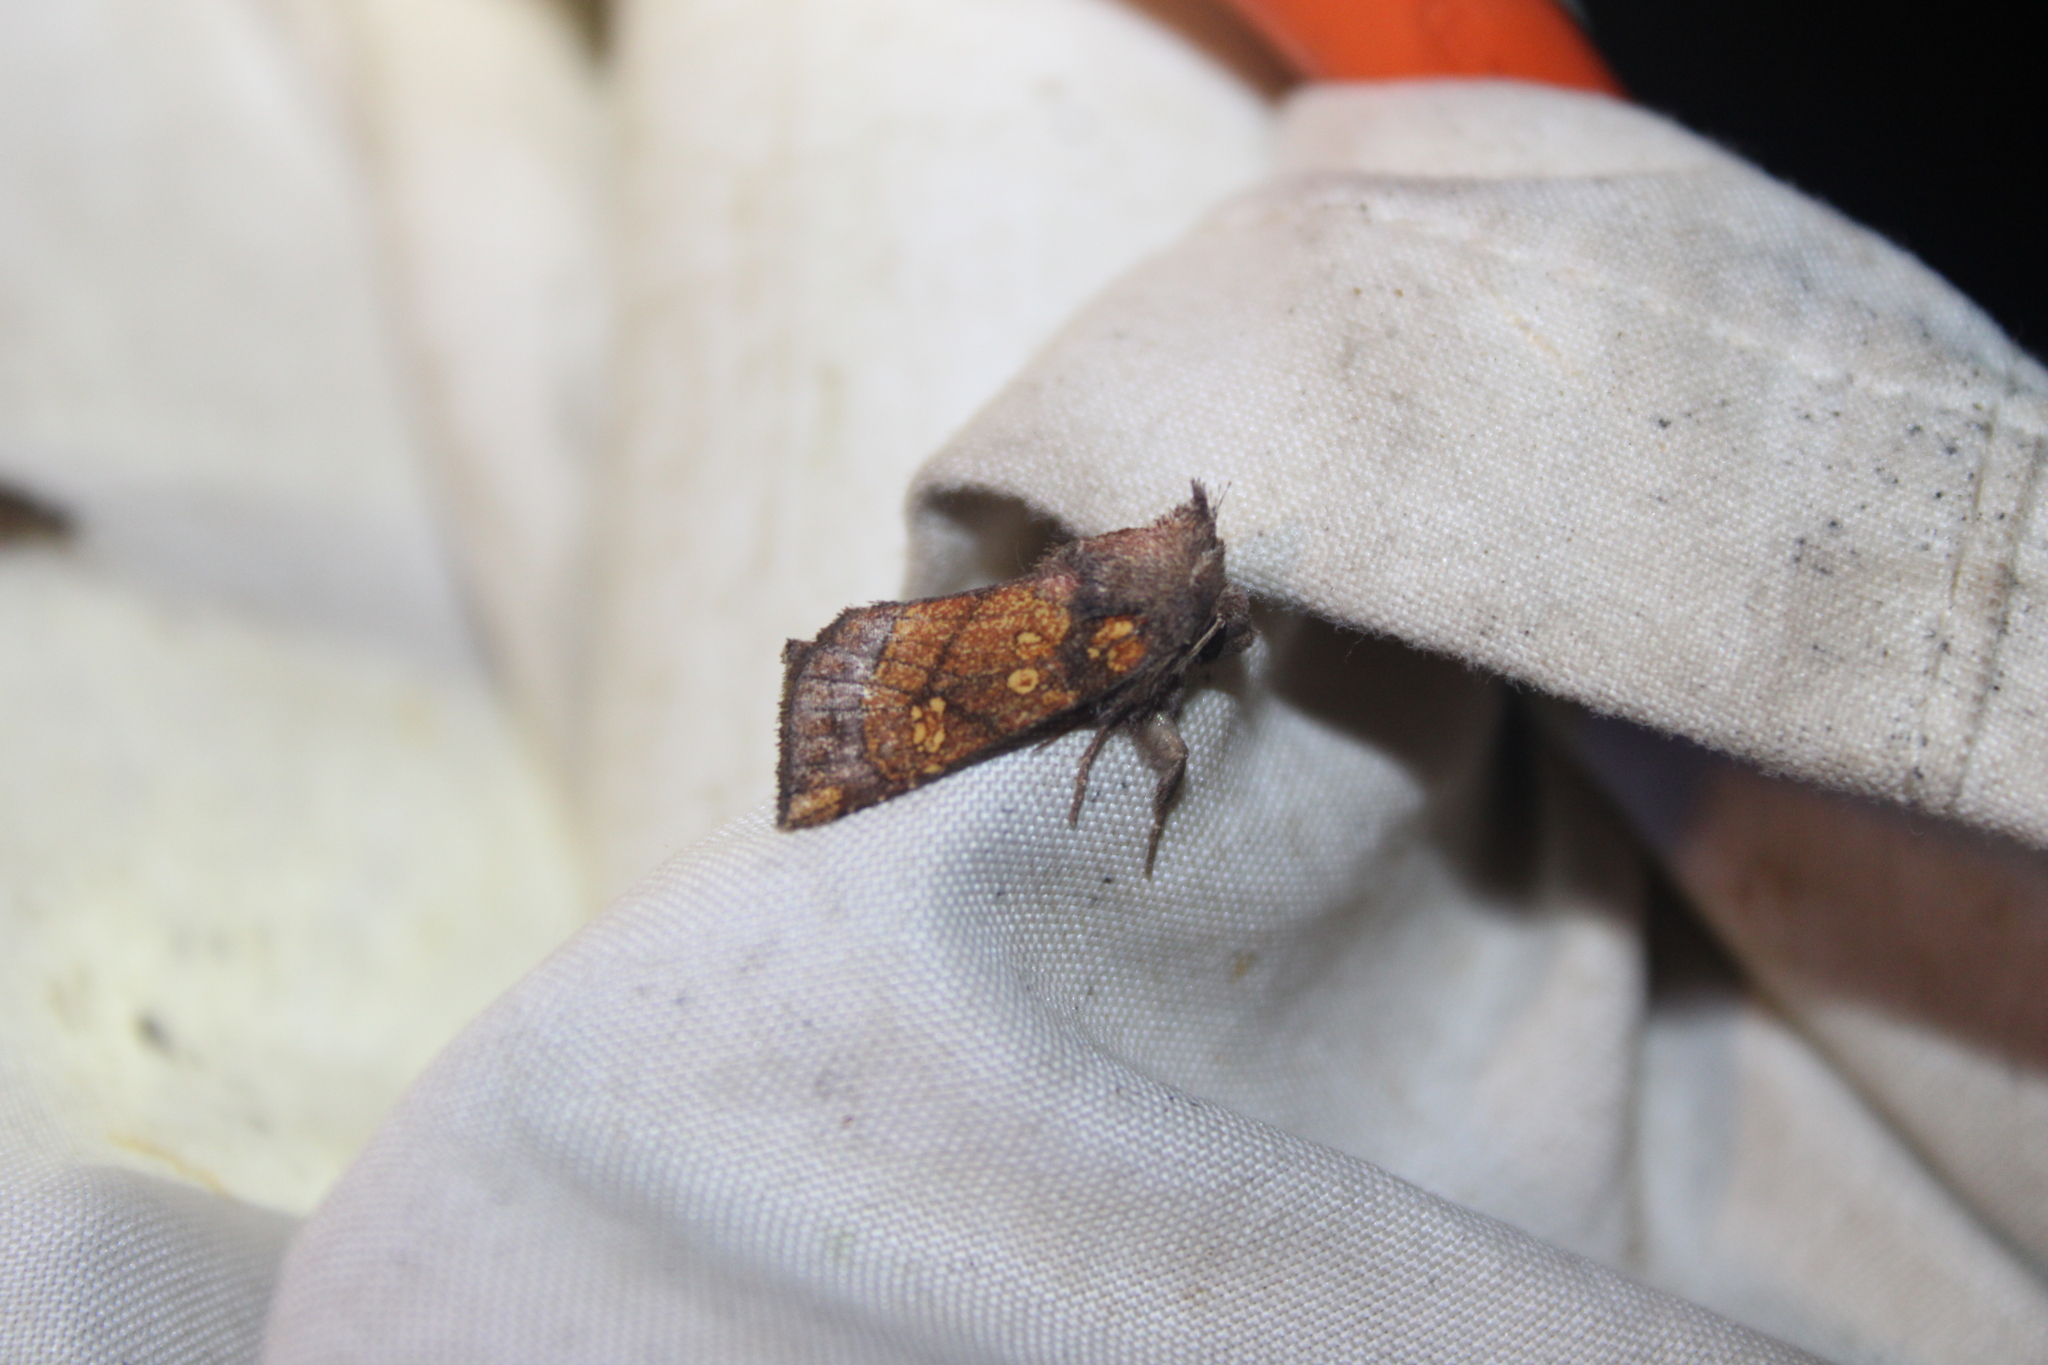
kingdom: Animalia
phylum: Arthropoda
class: Insecta
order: Lepidoptera
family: Noctuidae
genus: Papaipema
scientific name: Papaipema impecuniosa
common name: Aster borer moth
